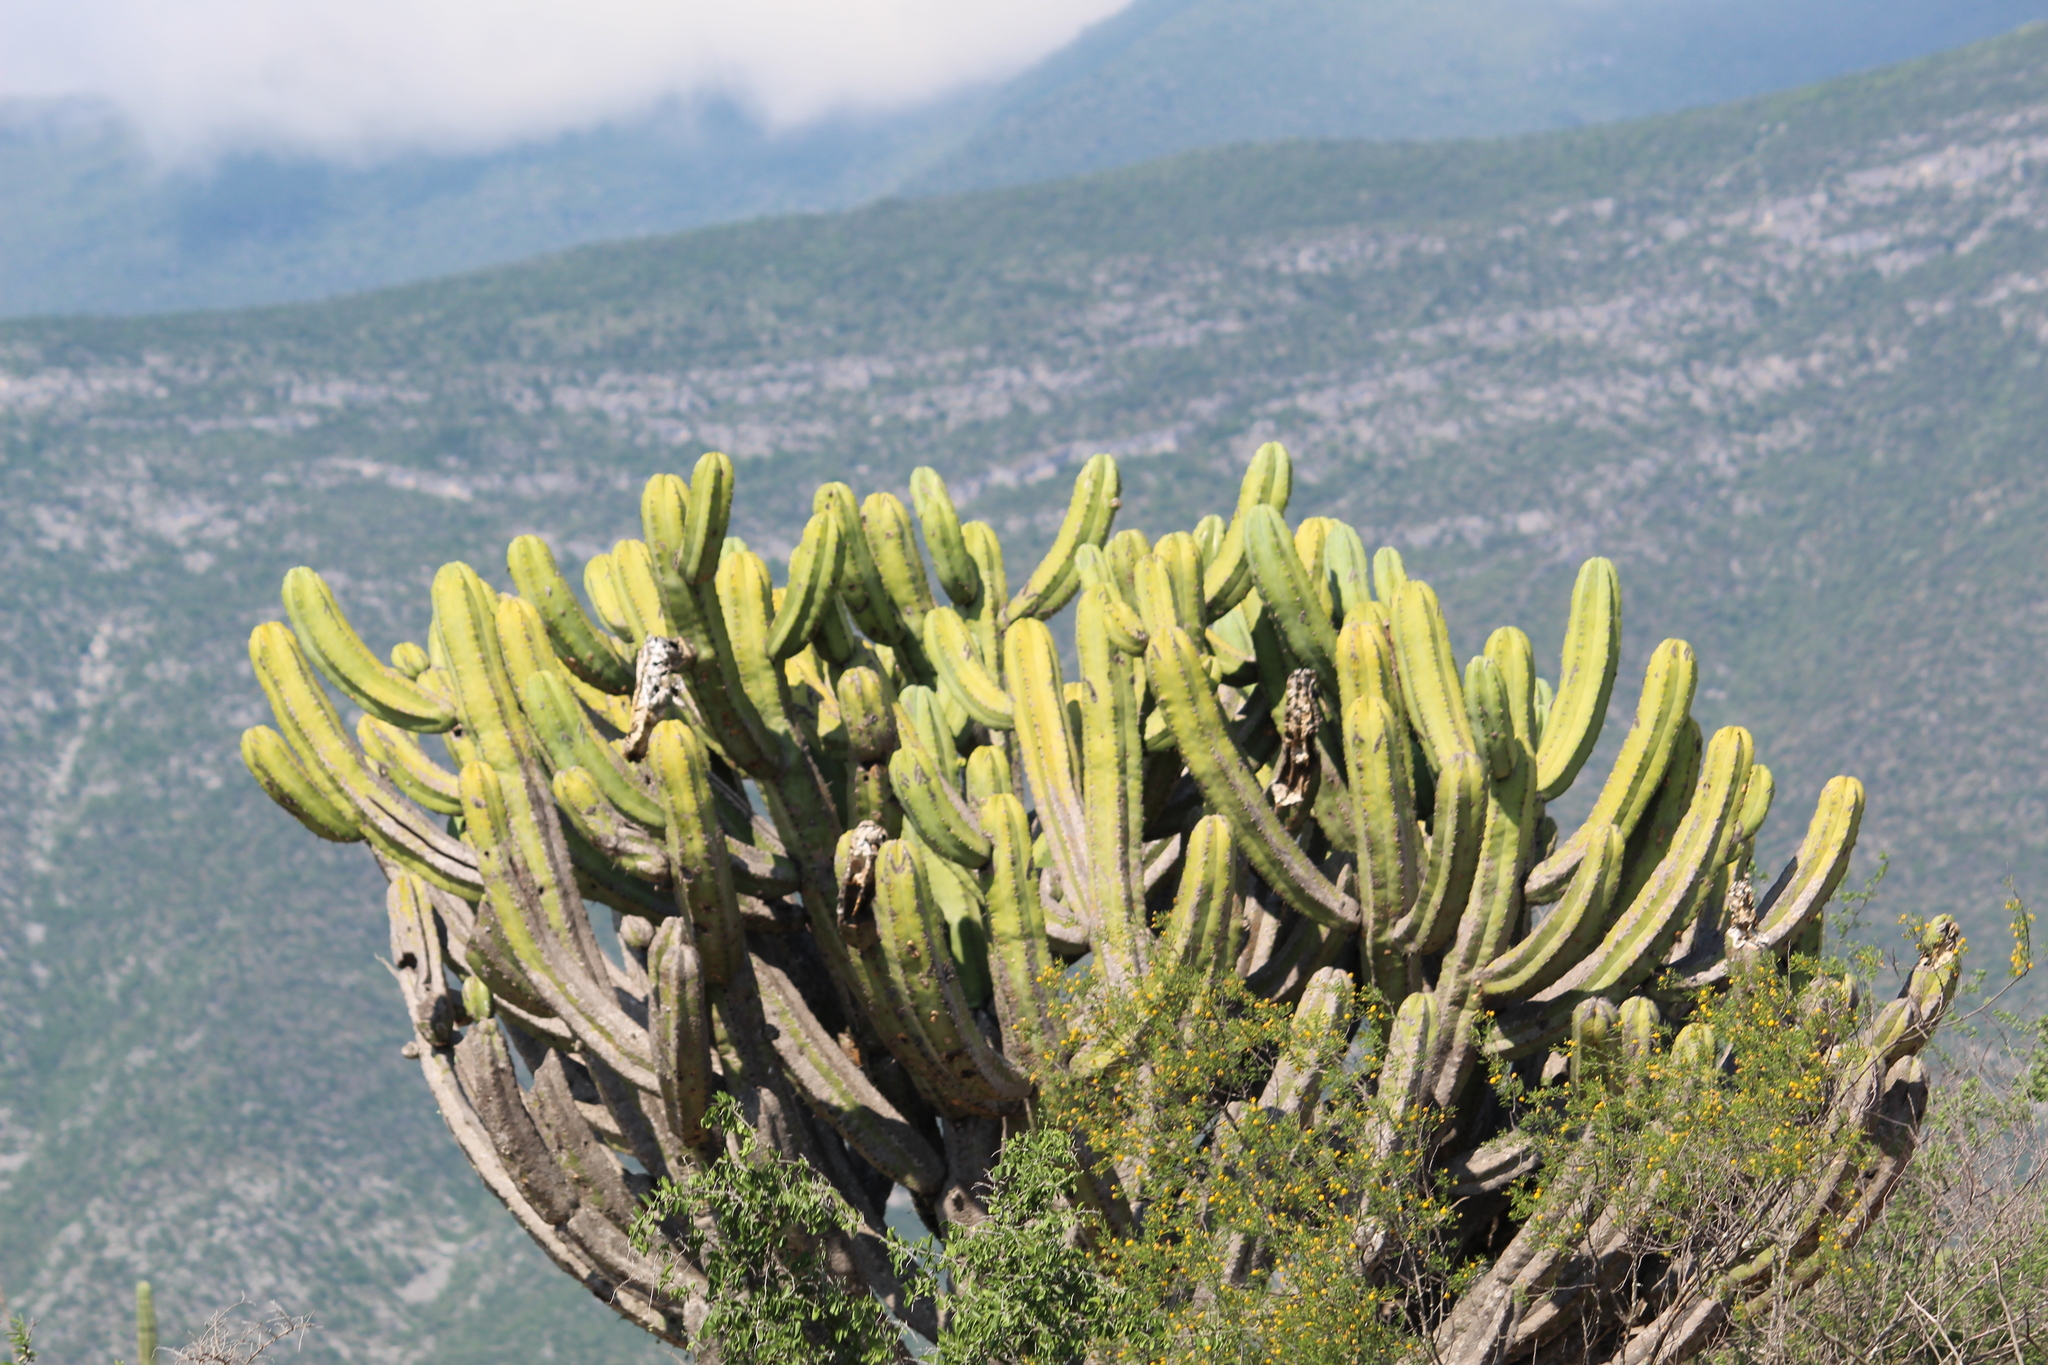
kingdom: Plantae
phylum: Tracheophyta
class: Magnoliopsida
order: Caryophyllales
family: Cactaceae
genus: Myrtillocactus
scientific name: Myrtillocactus geometrizans
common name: Bilberry cactus
